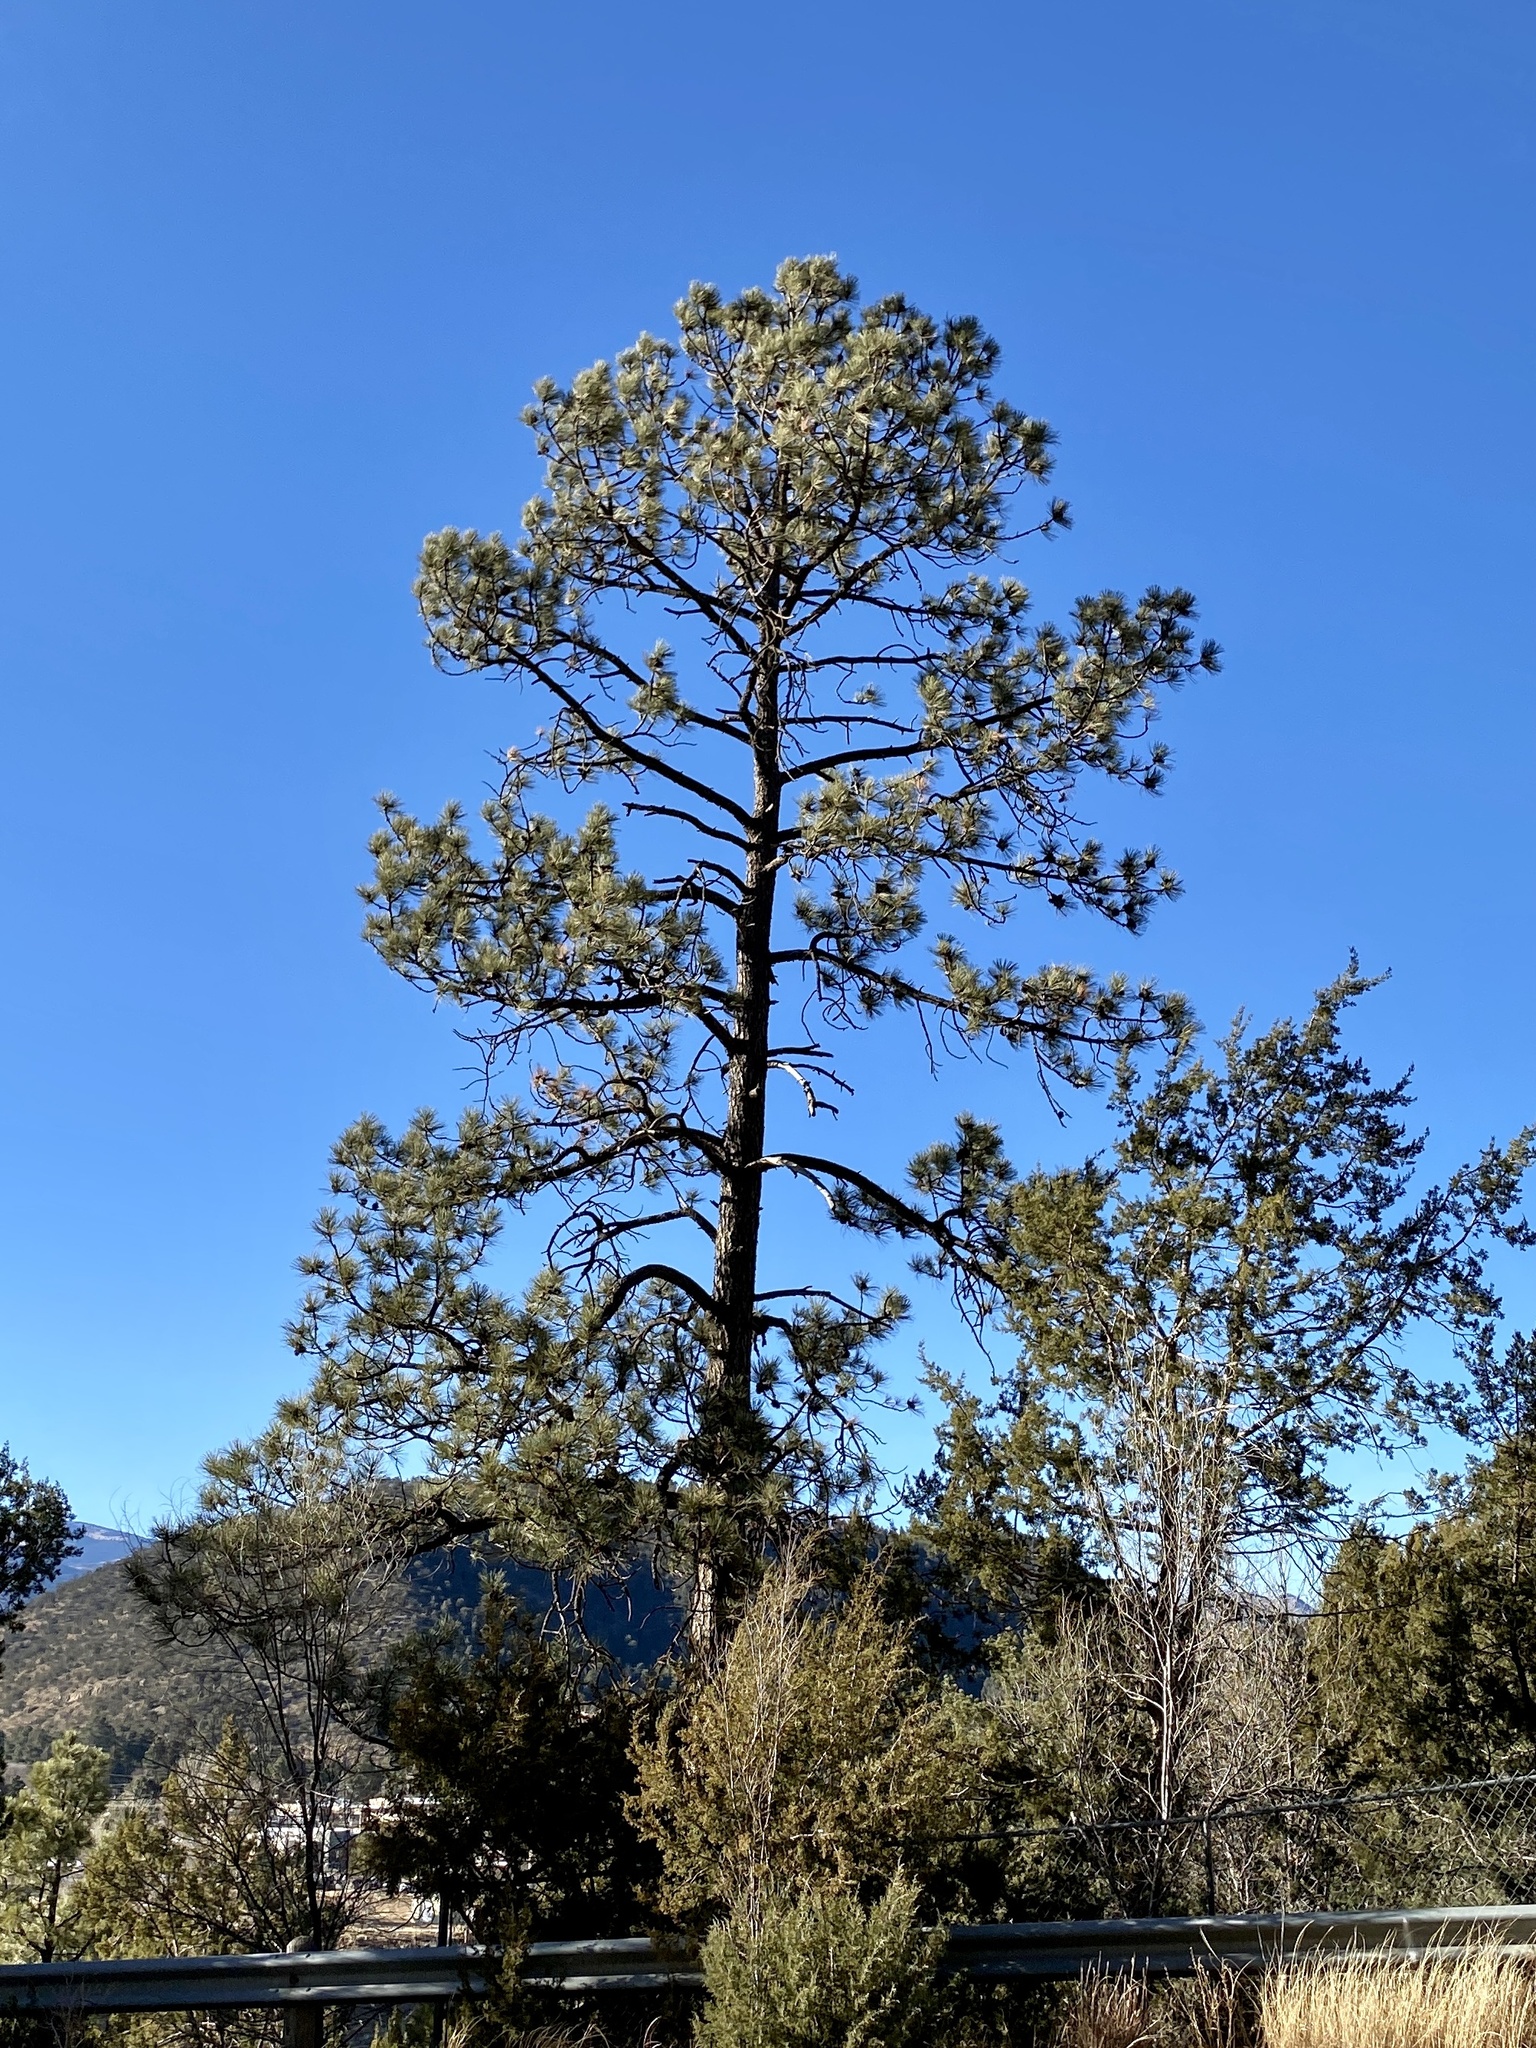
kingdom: Plantae
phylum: Tracheophyta
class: Pinopsida
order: Pinales
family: Pinaceae
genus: Pinus
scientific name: Pinus ponderosa
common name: Western yellow-pine
